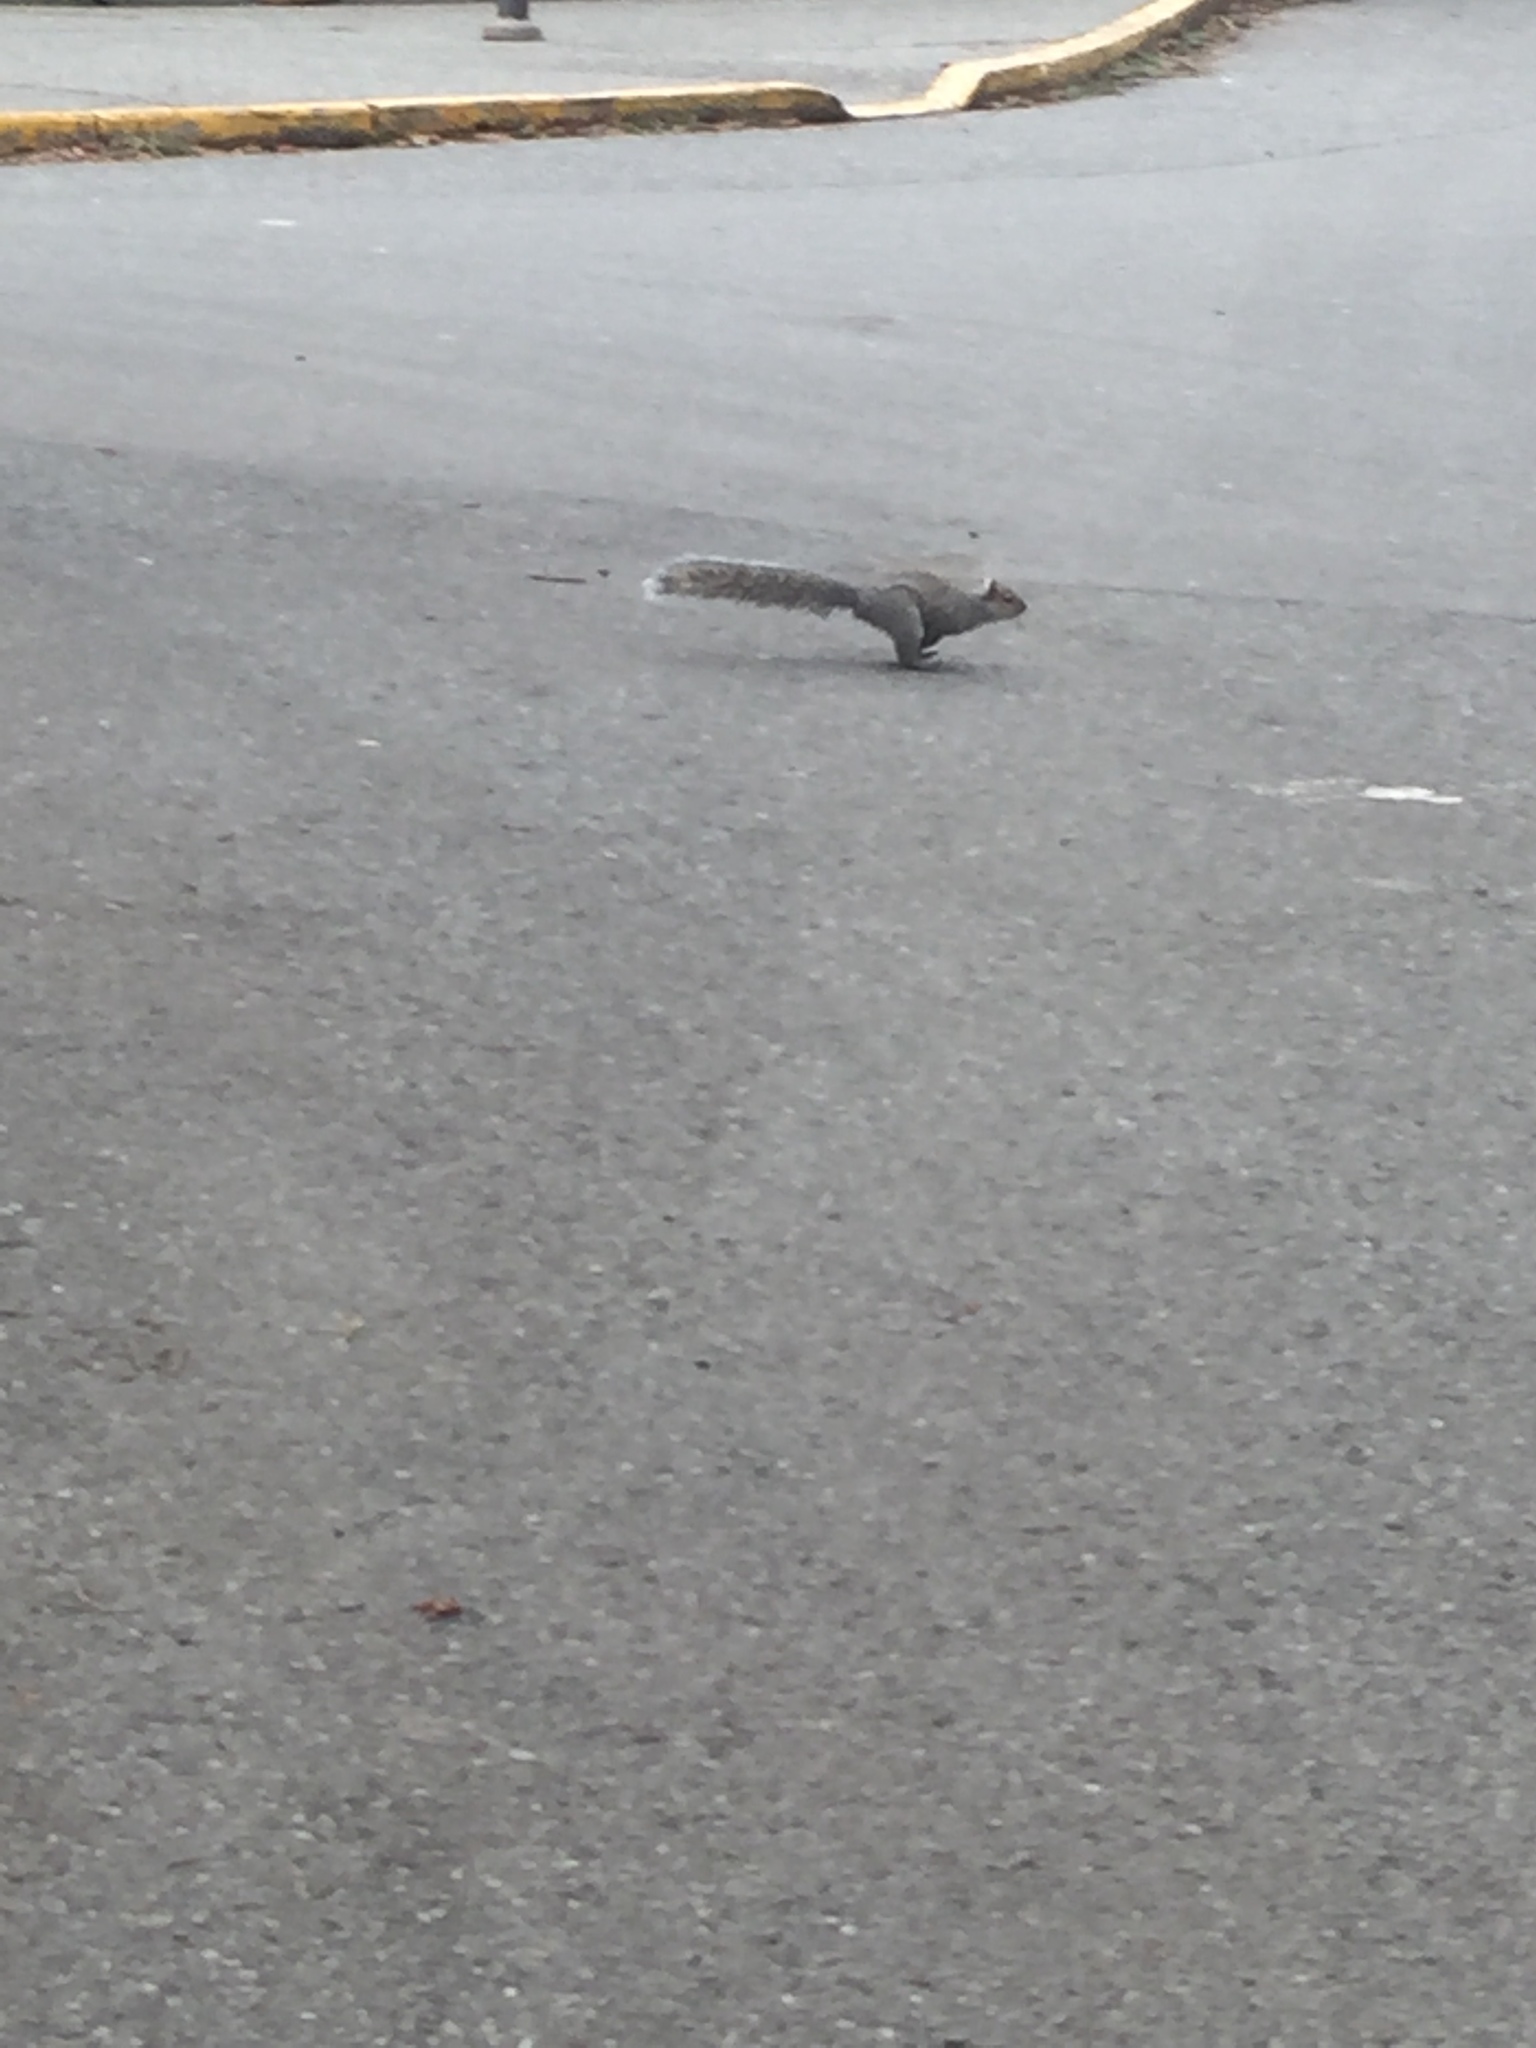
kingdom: Animalia
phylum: Chordata
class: Mammalia
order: Rodentia
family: Sciuridae
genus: Sciurus
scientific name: Sciurus carolinensis
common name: Eastern gray squirrel
